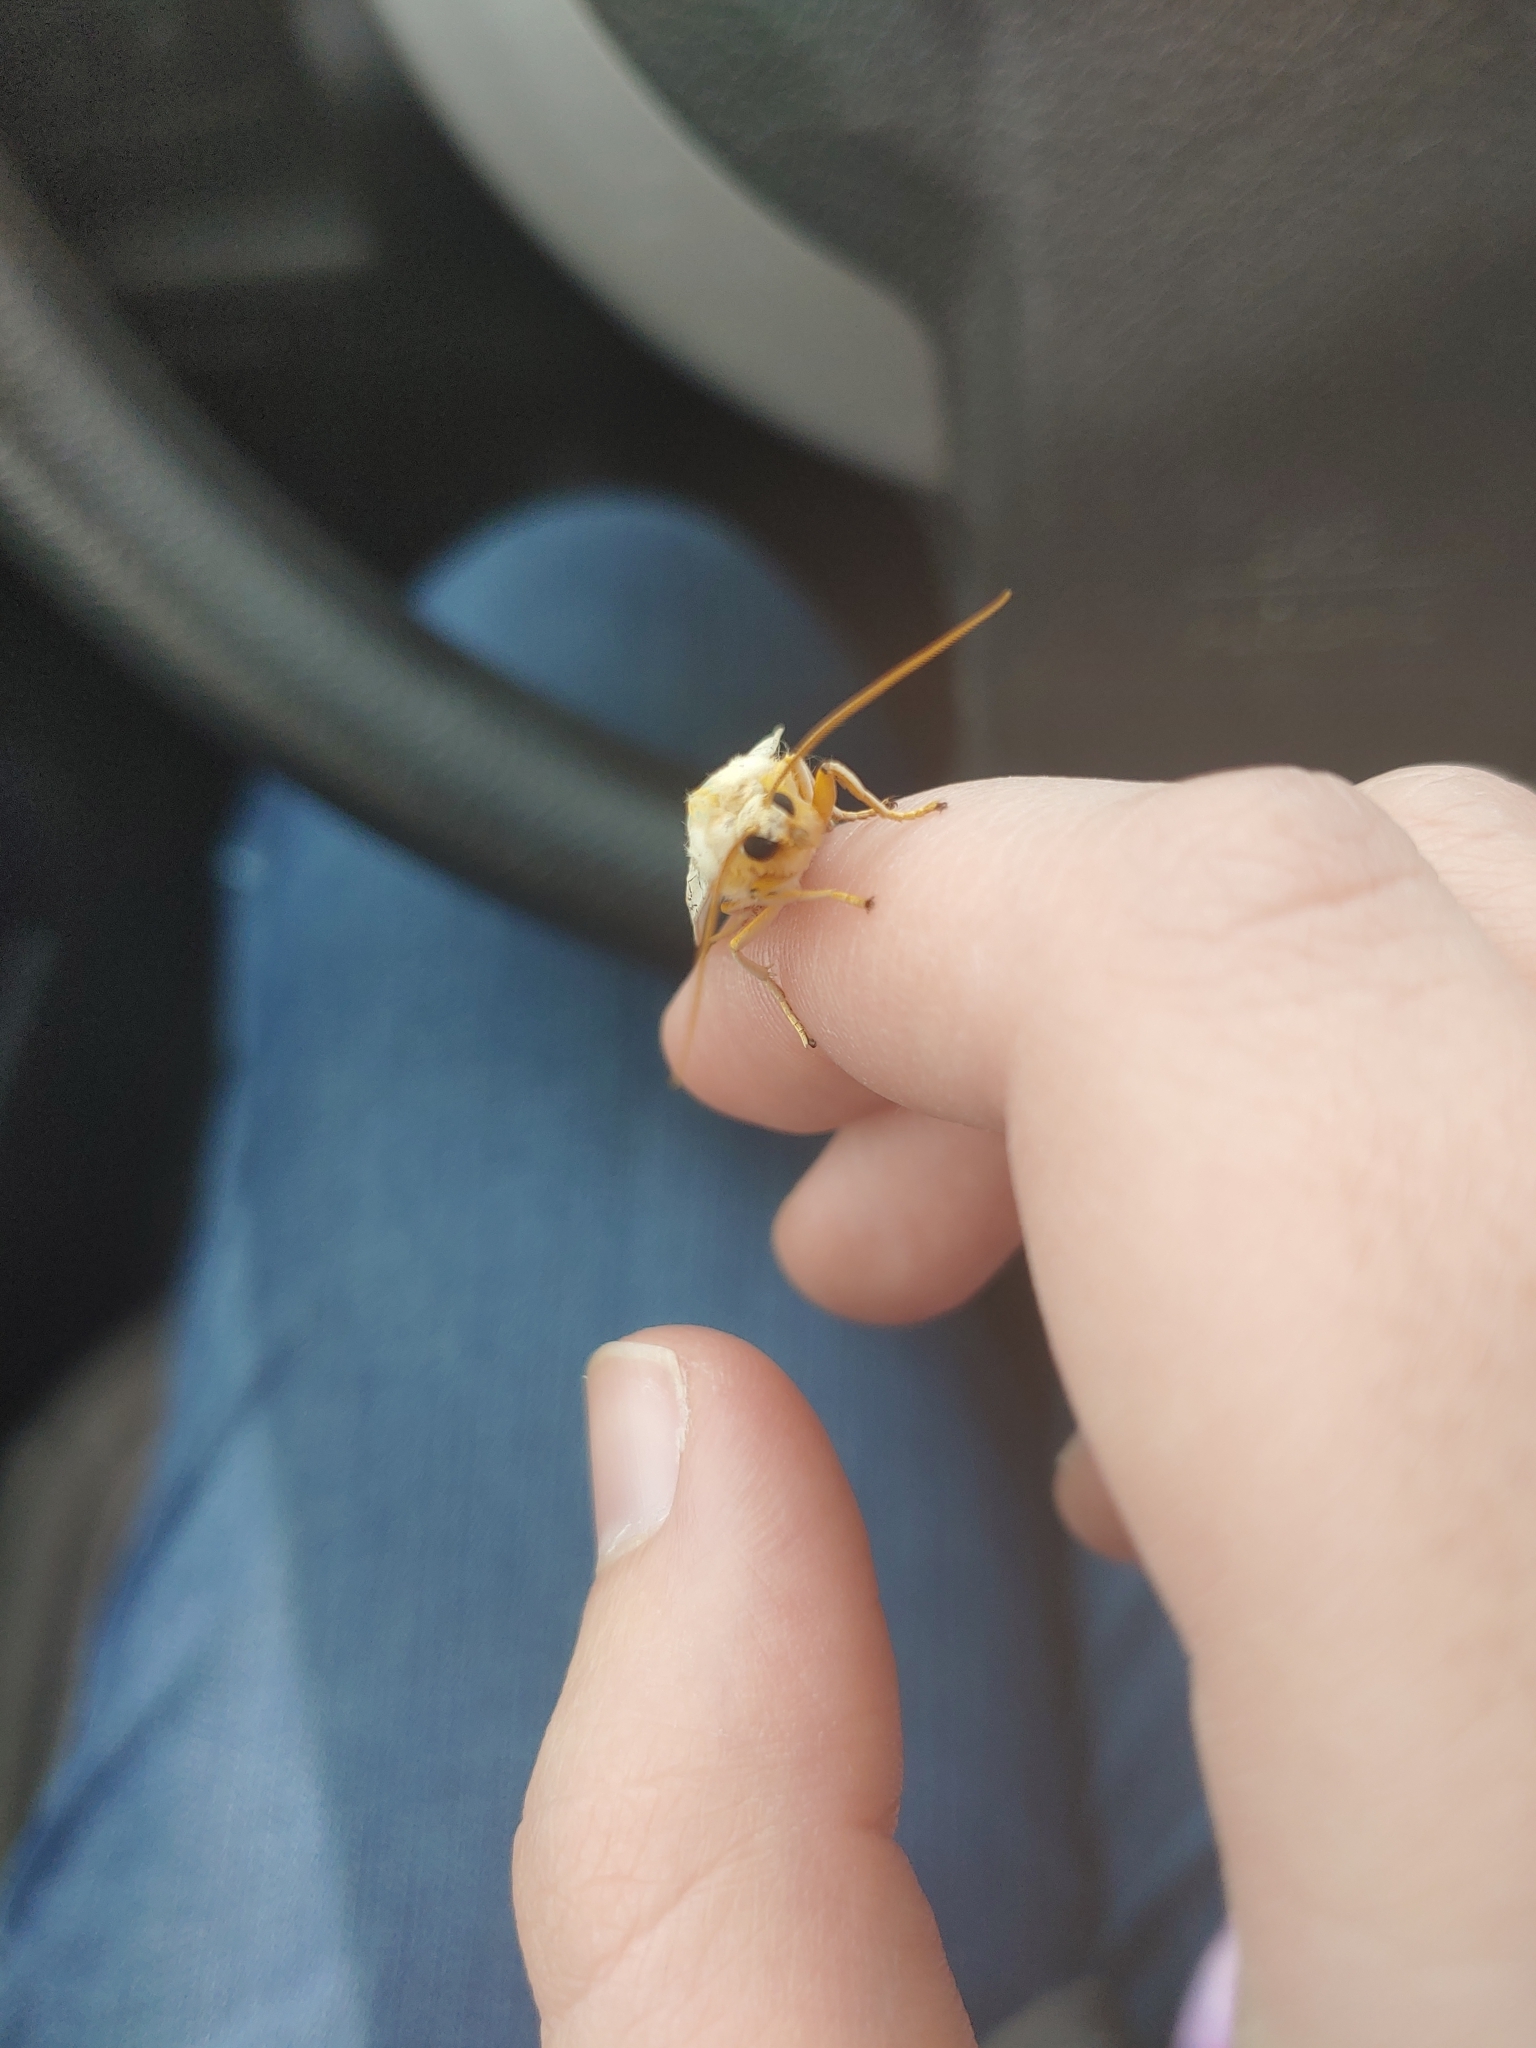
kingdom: Animalia
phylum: Arthropoda
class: Insecta
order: Lepidoptera
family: Erebidae
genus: Halysidota
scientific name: Halysidota
